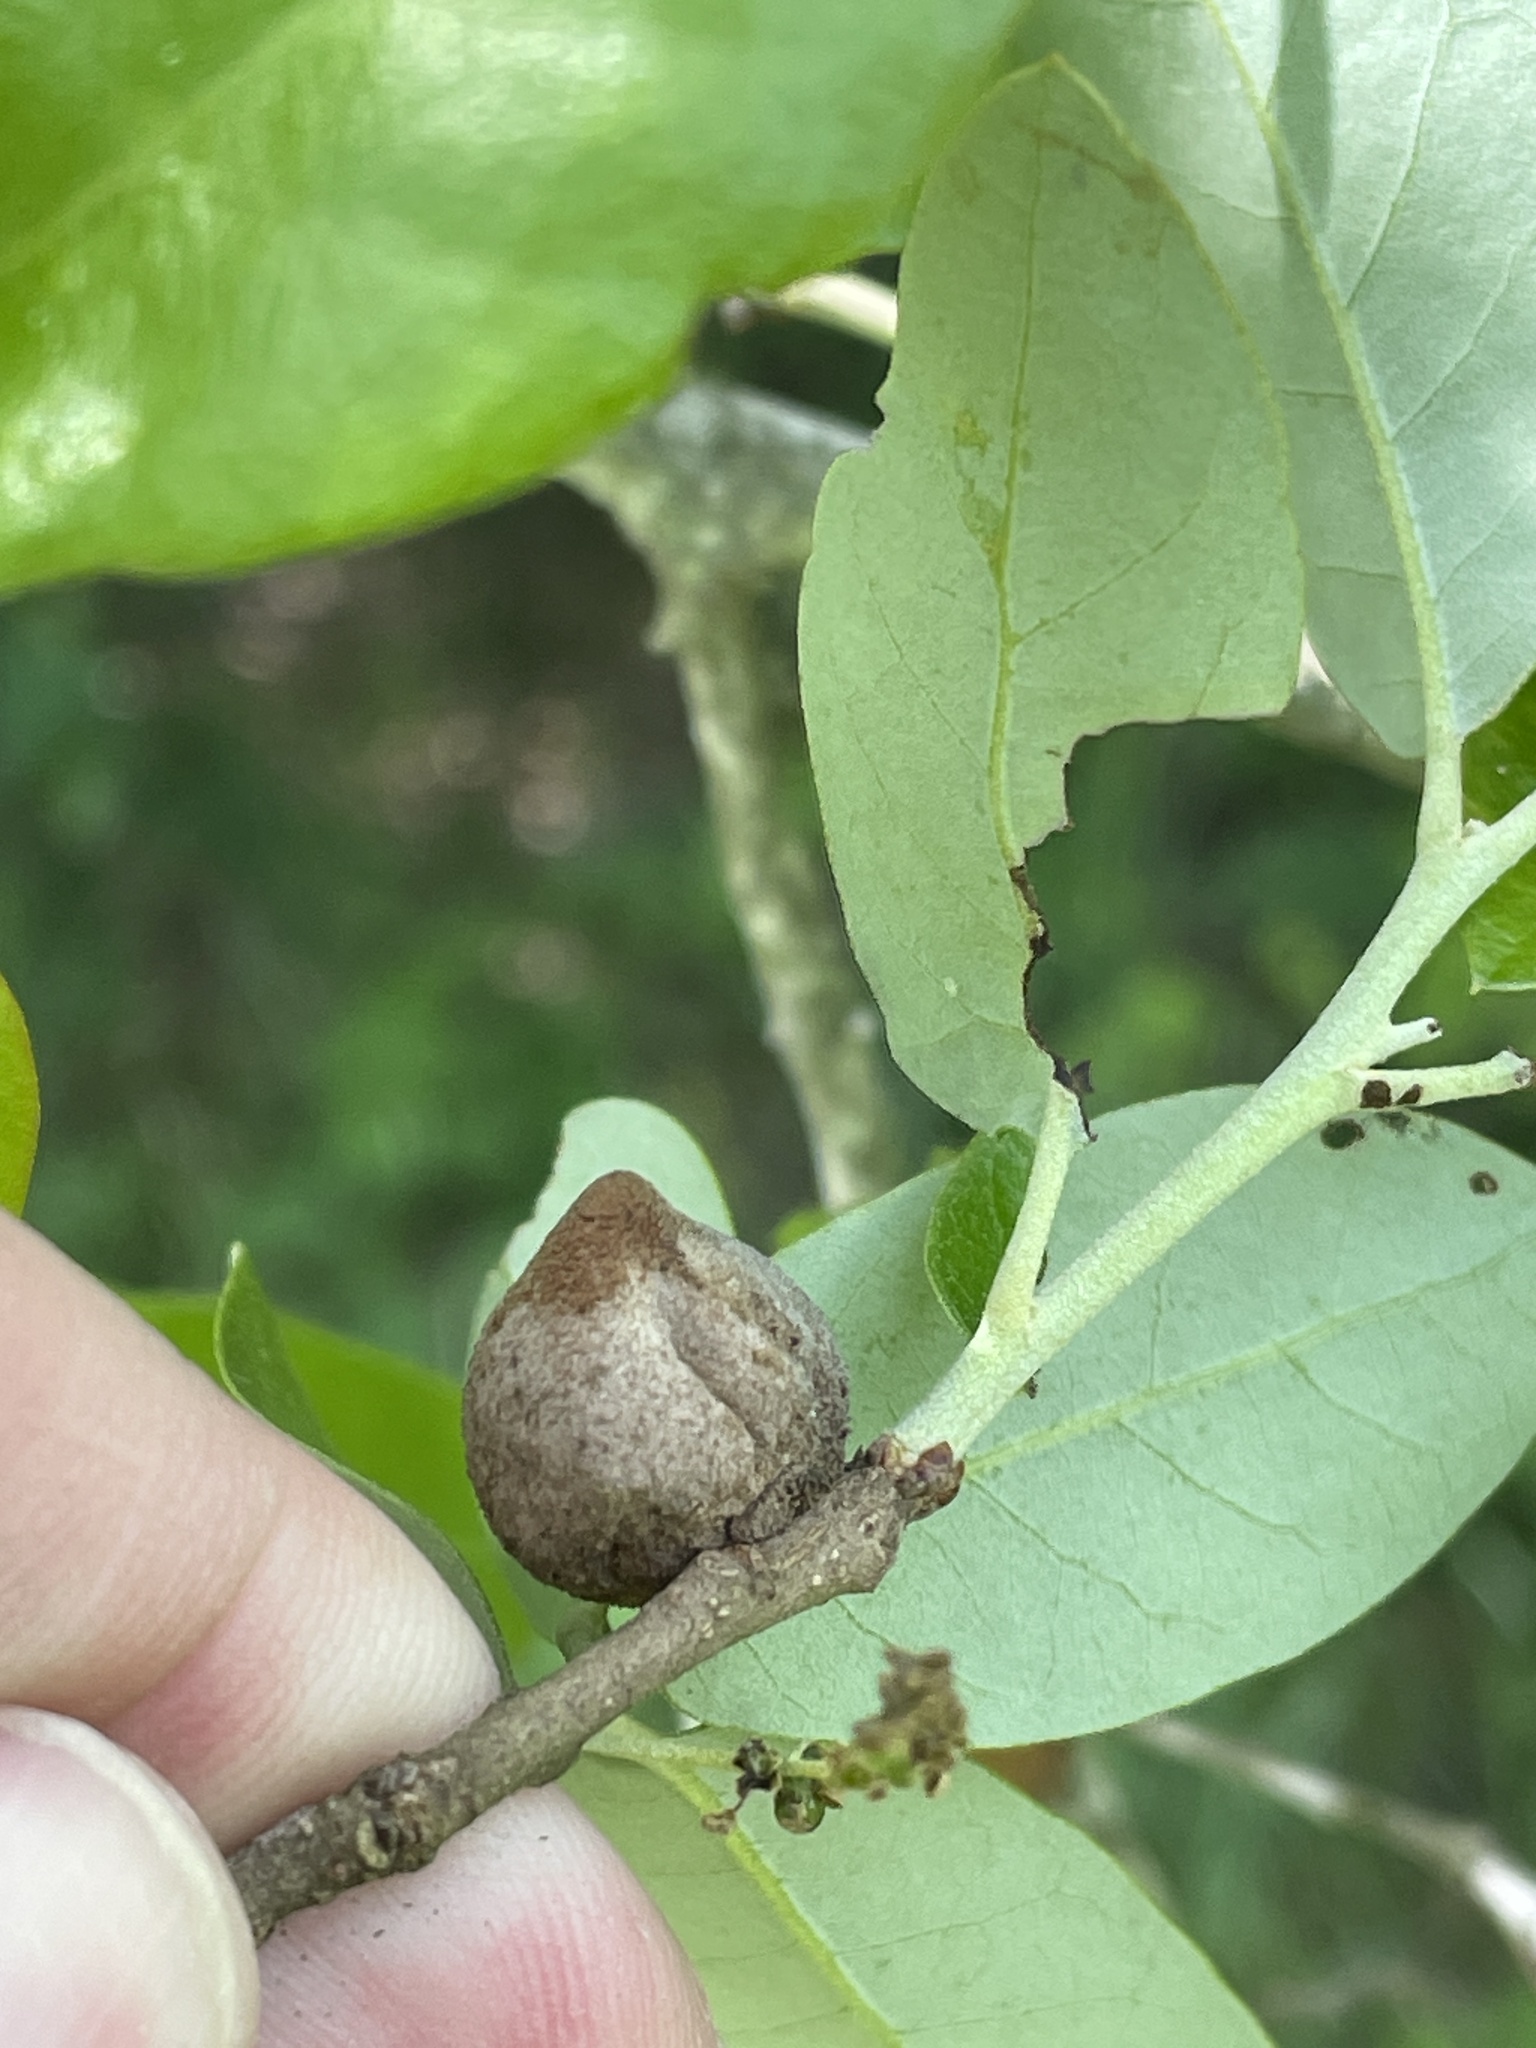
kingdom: Animalia
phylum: Arthropoda
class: Insecta
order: Hymenoptera
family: Cynipidae
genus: Disholcaspis
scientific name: Disholcaspis
